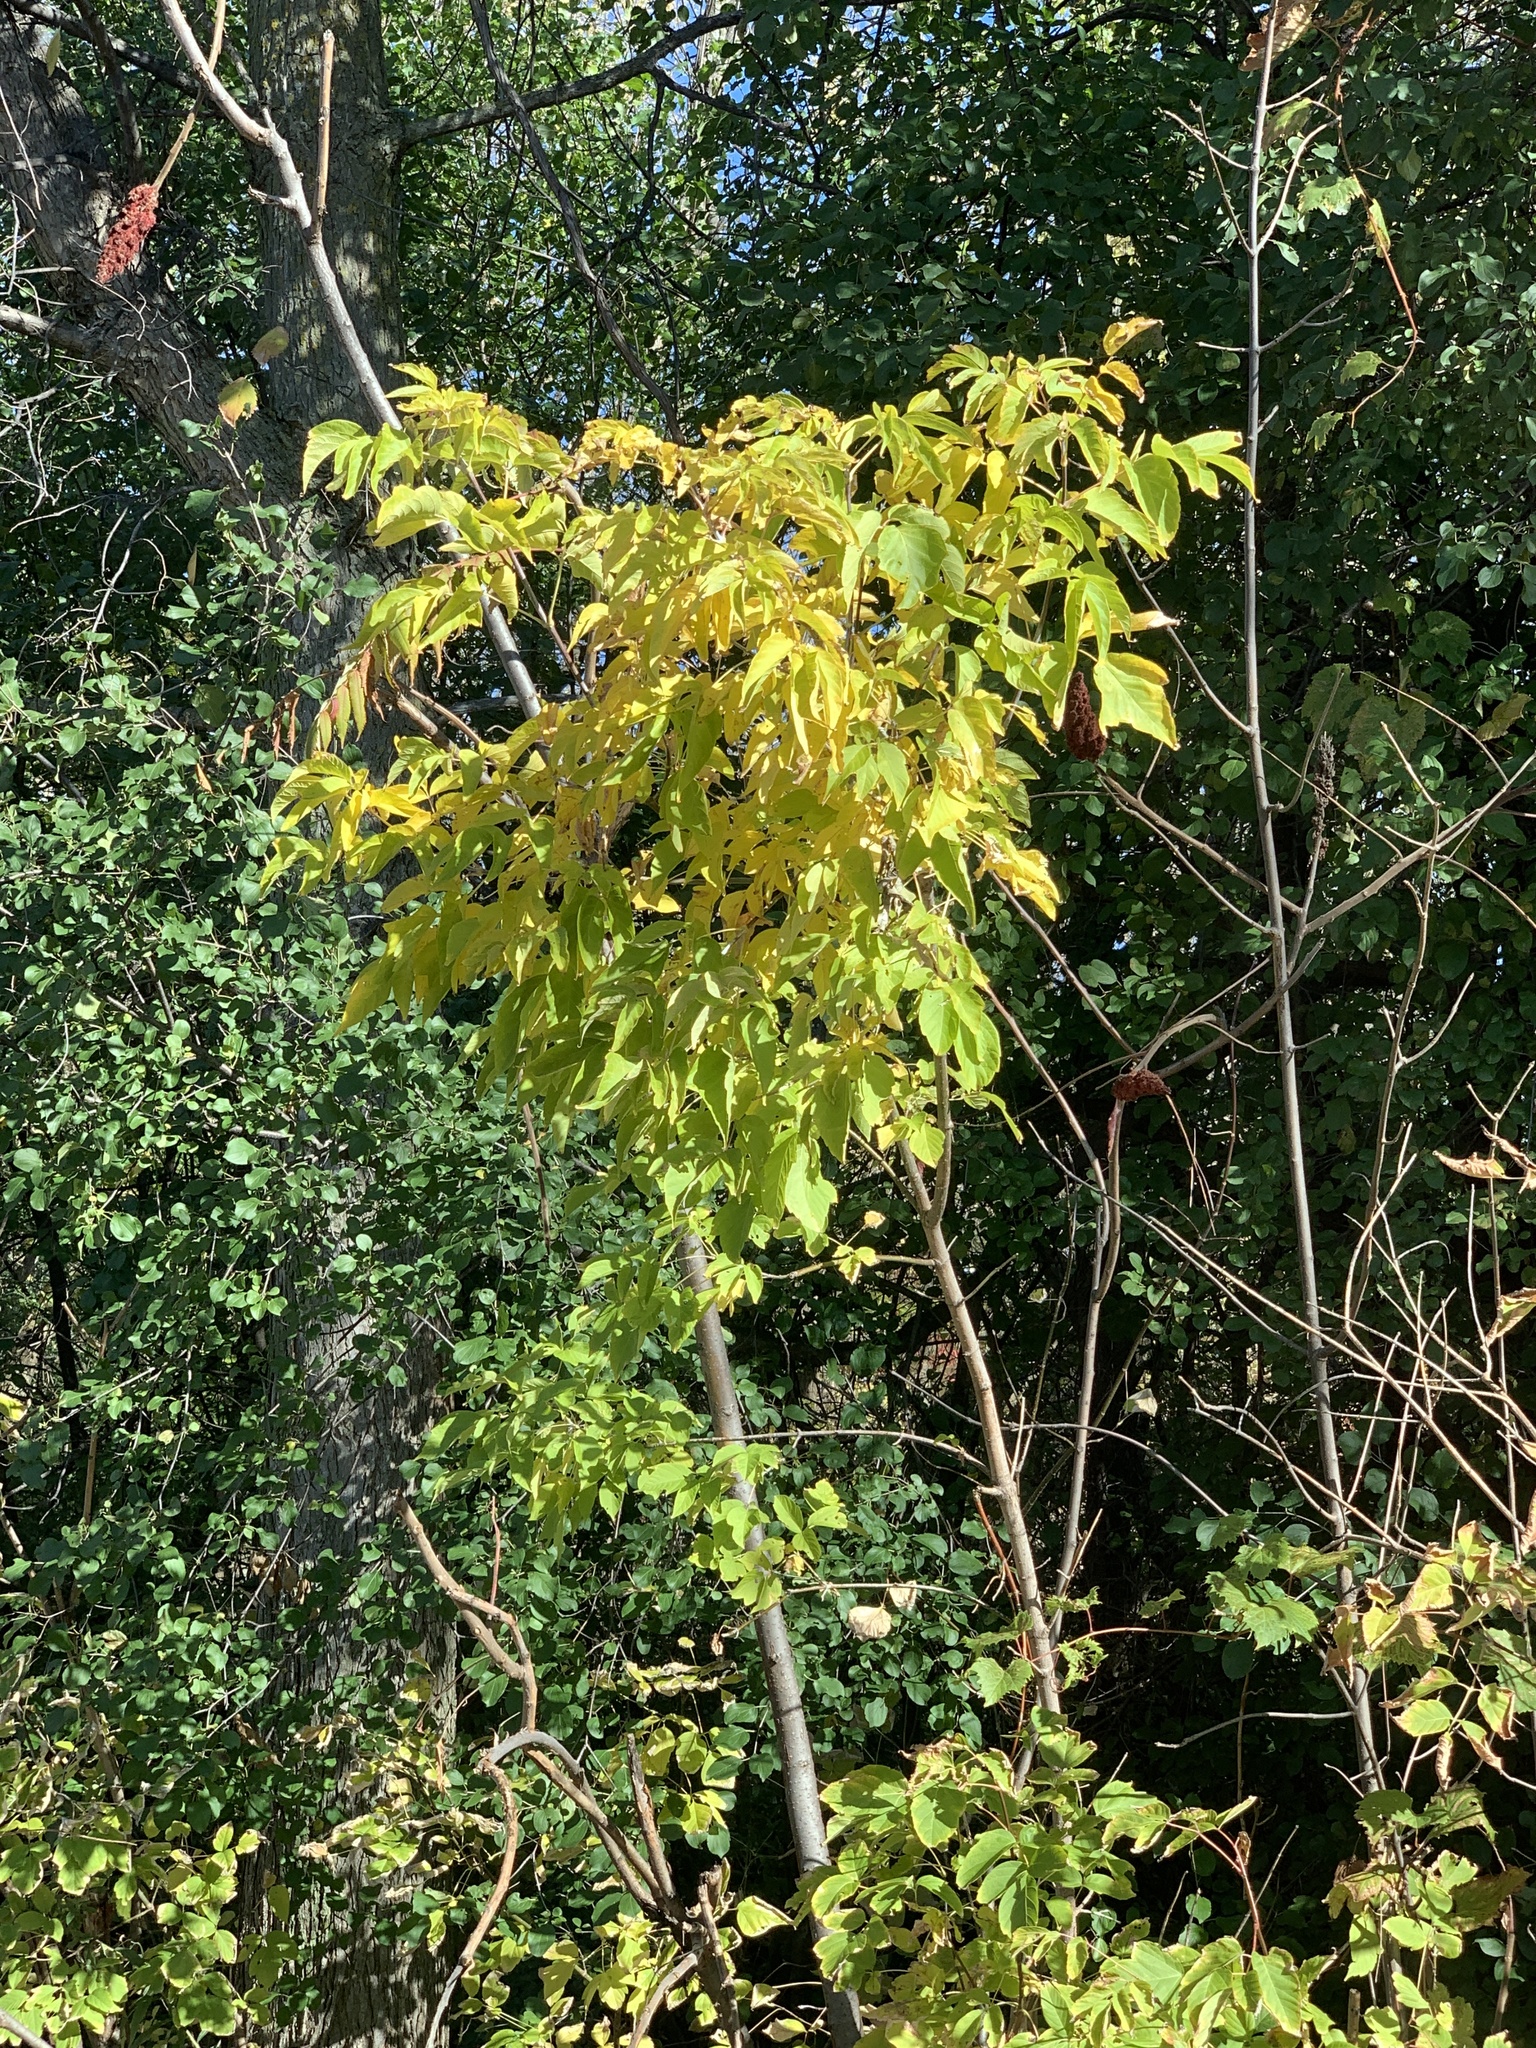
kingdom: Plantae
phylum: Tracheophyta
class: Magnoliopsida
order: Sapindales
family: Sapindaceae
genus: Acer
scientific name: Acer negundo
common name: Ashleaf maple
